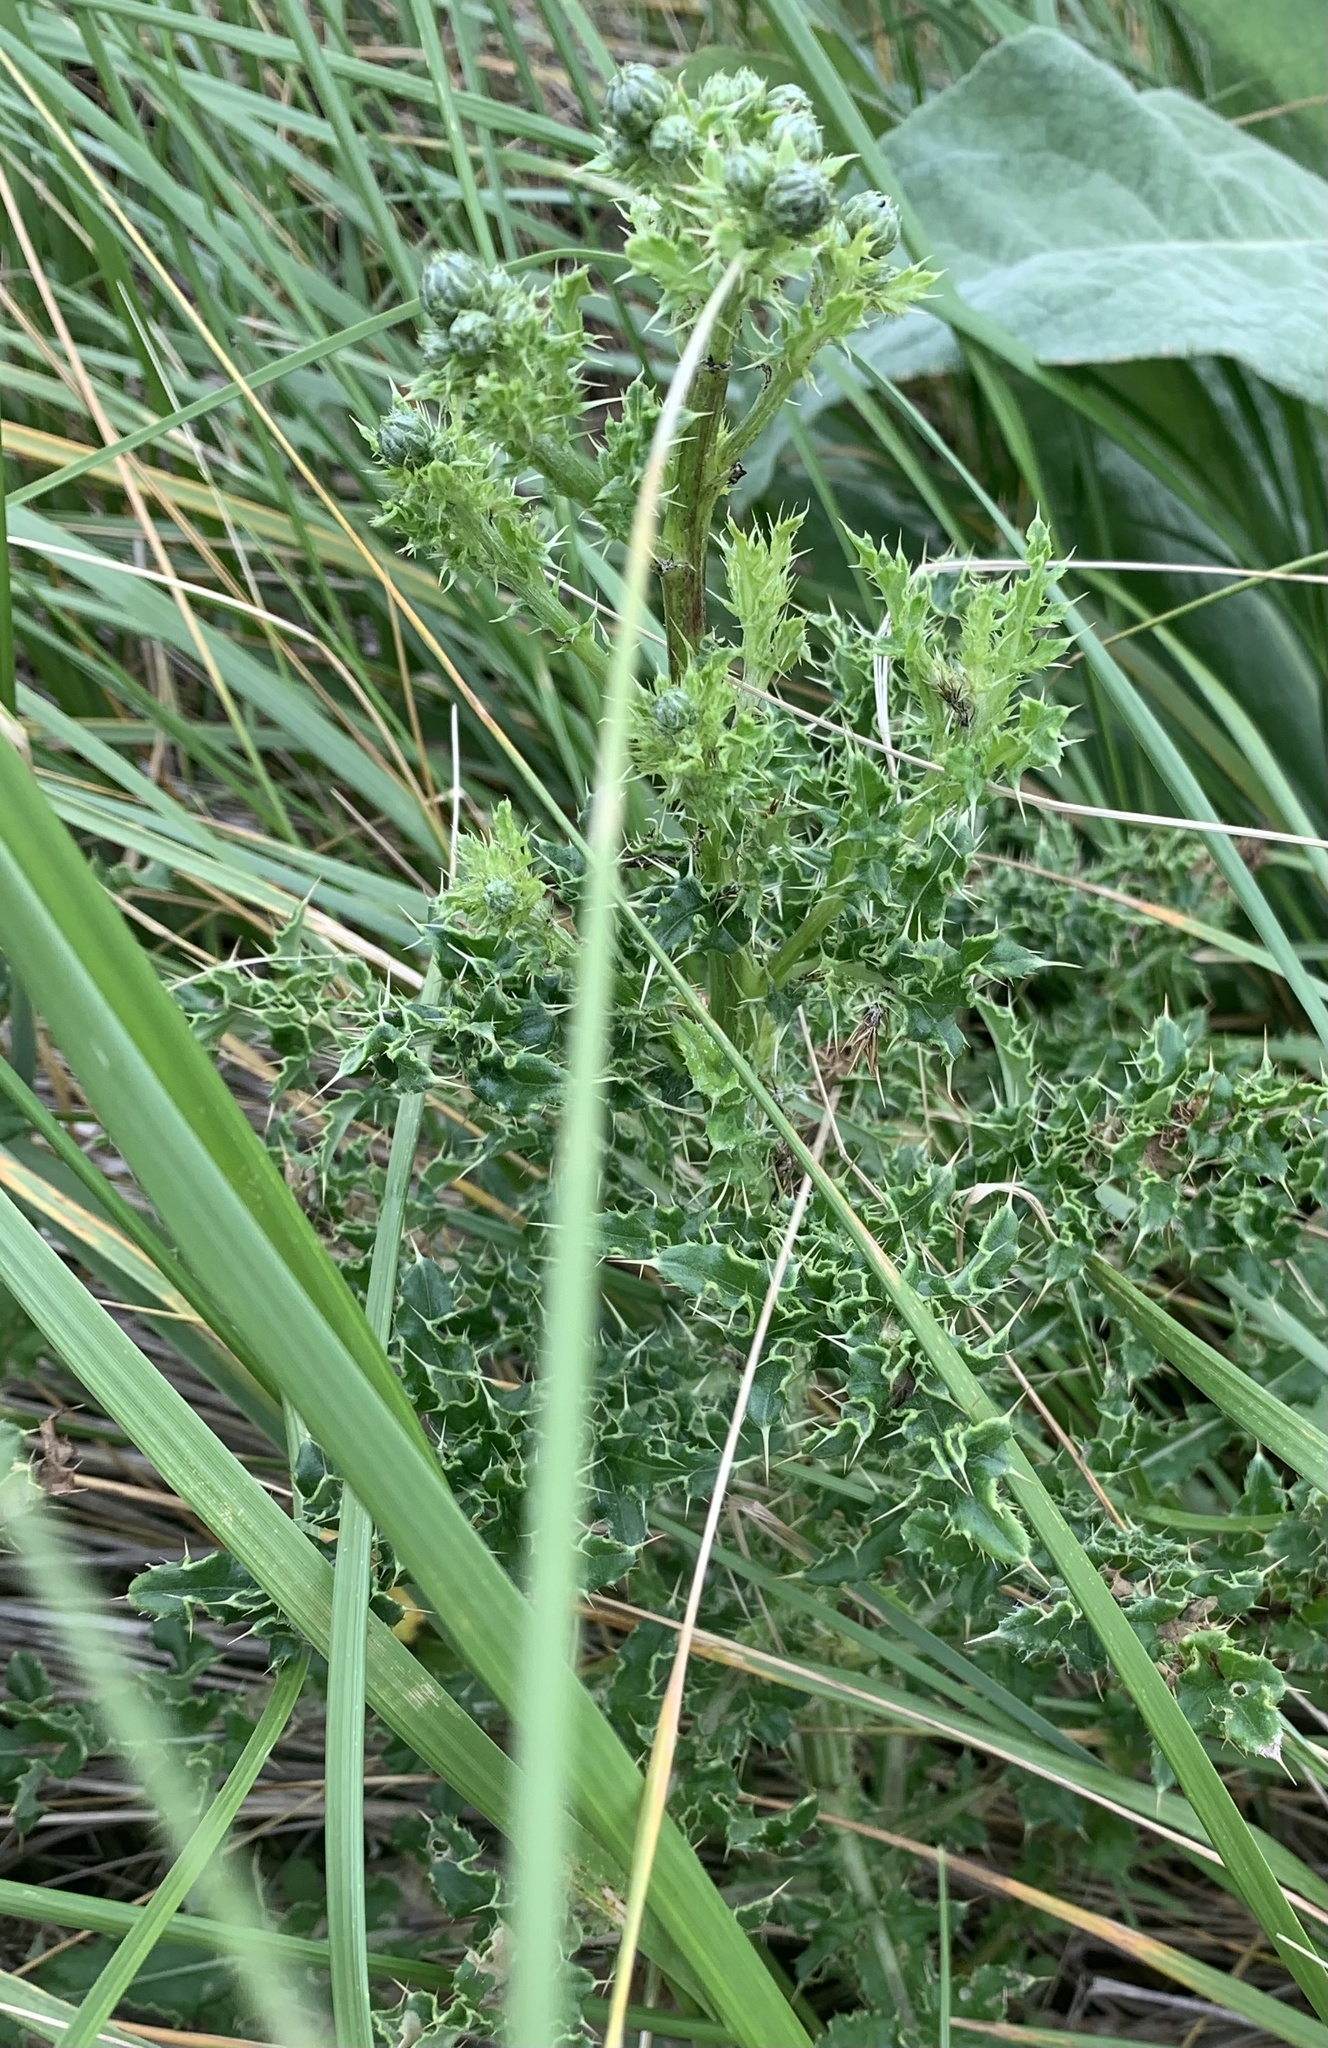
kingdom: Plantae
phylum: Tracheophyta
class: Magnoliopsida
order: Asterales
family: Asteraceae
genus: Cirsium
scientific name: Cirsium arvense
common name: Creeping thistle
